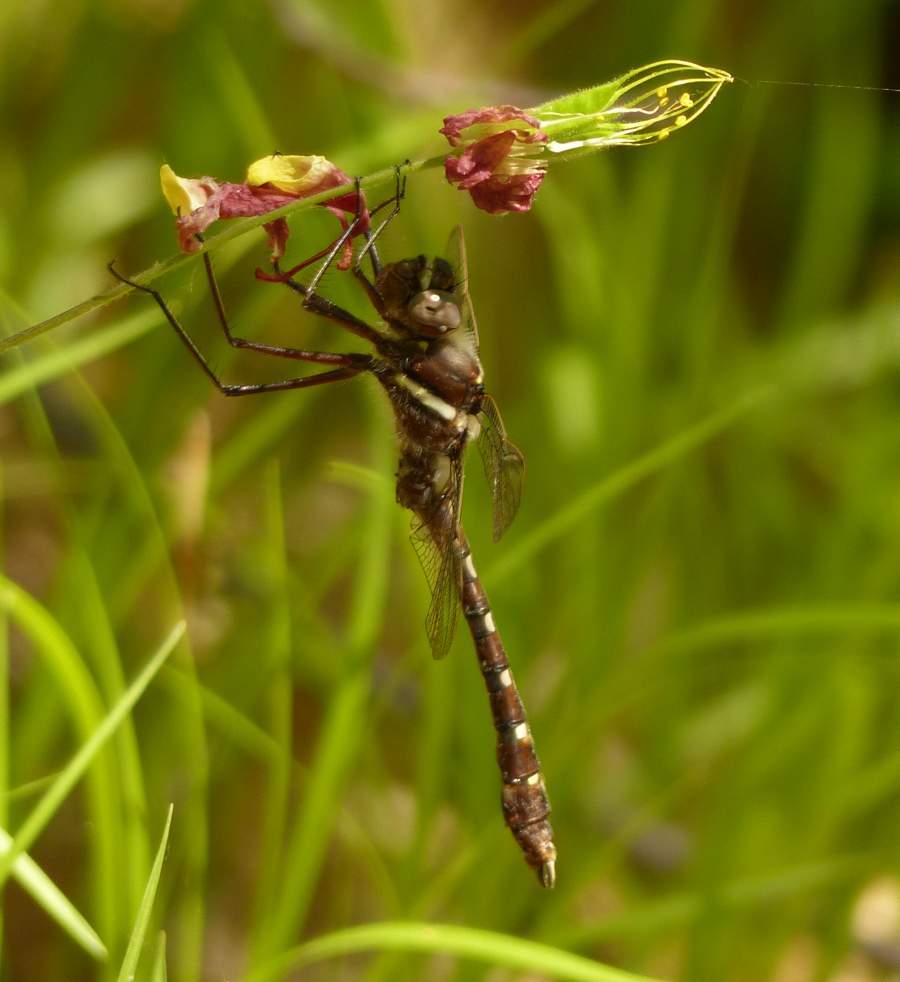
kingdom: Animalia
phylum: Arthropoda
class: Insecta
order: Odonata
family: Macromiidae
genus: Didymops
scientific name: Didymops transversa
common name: Stream cruiser
